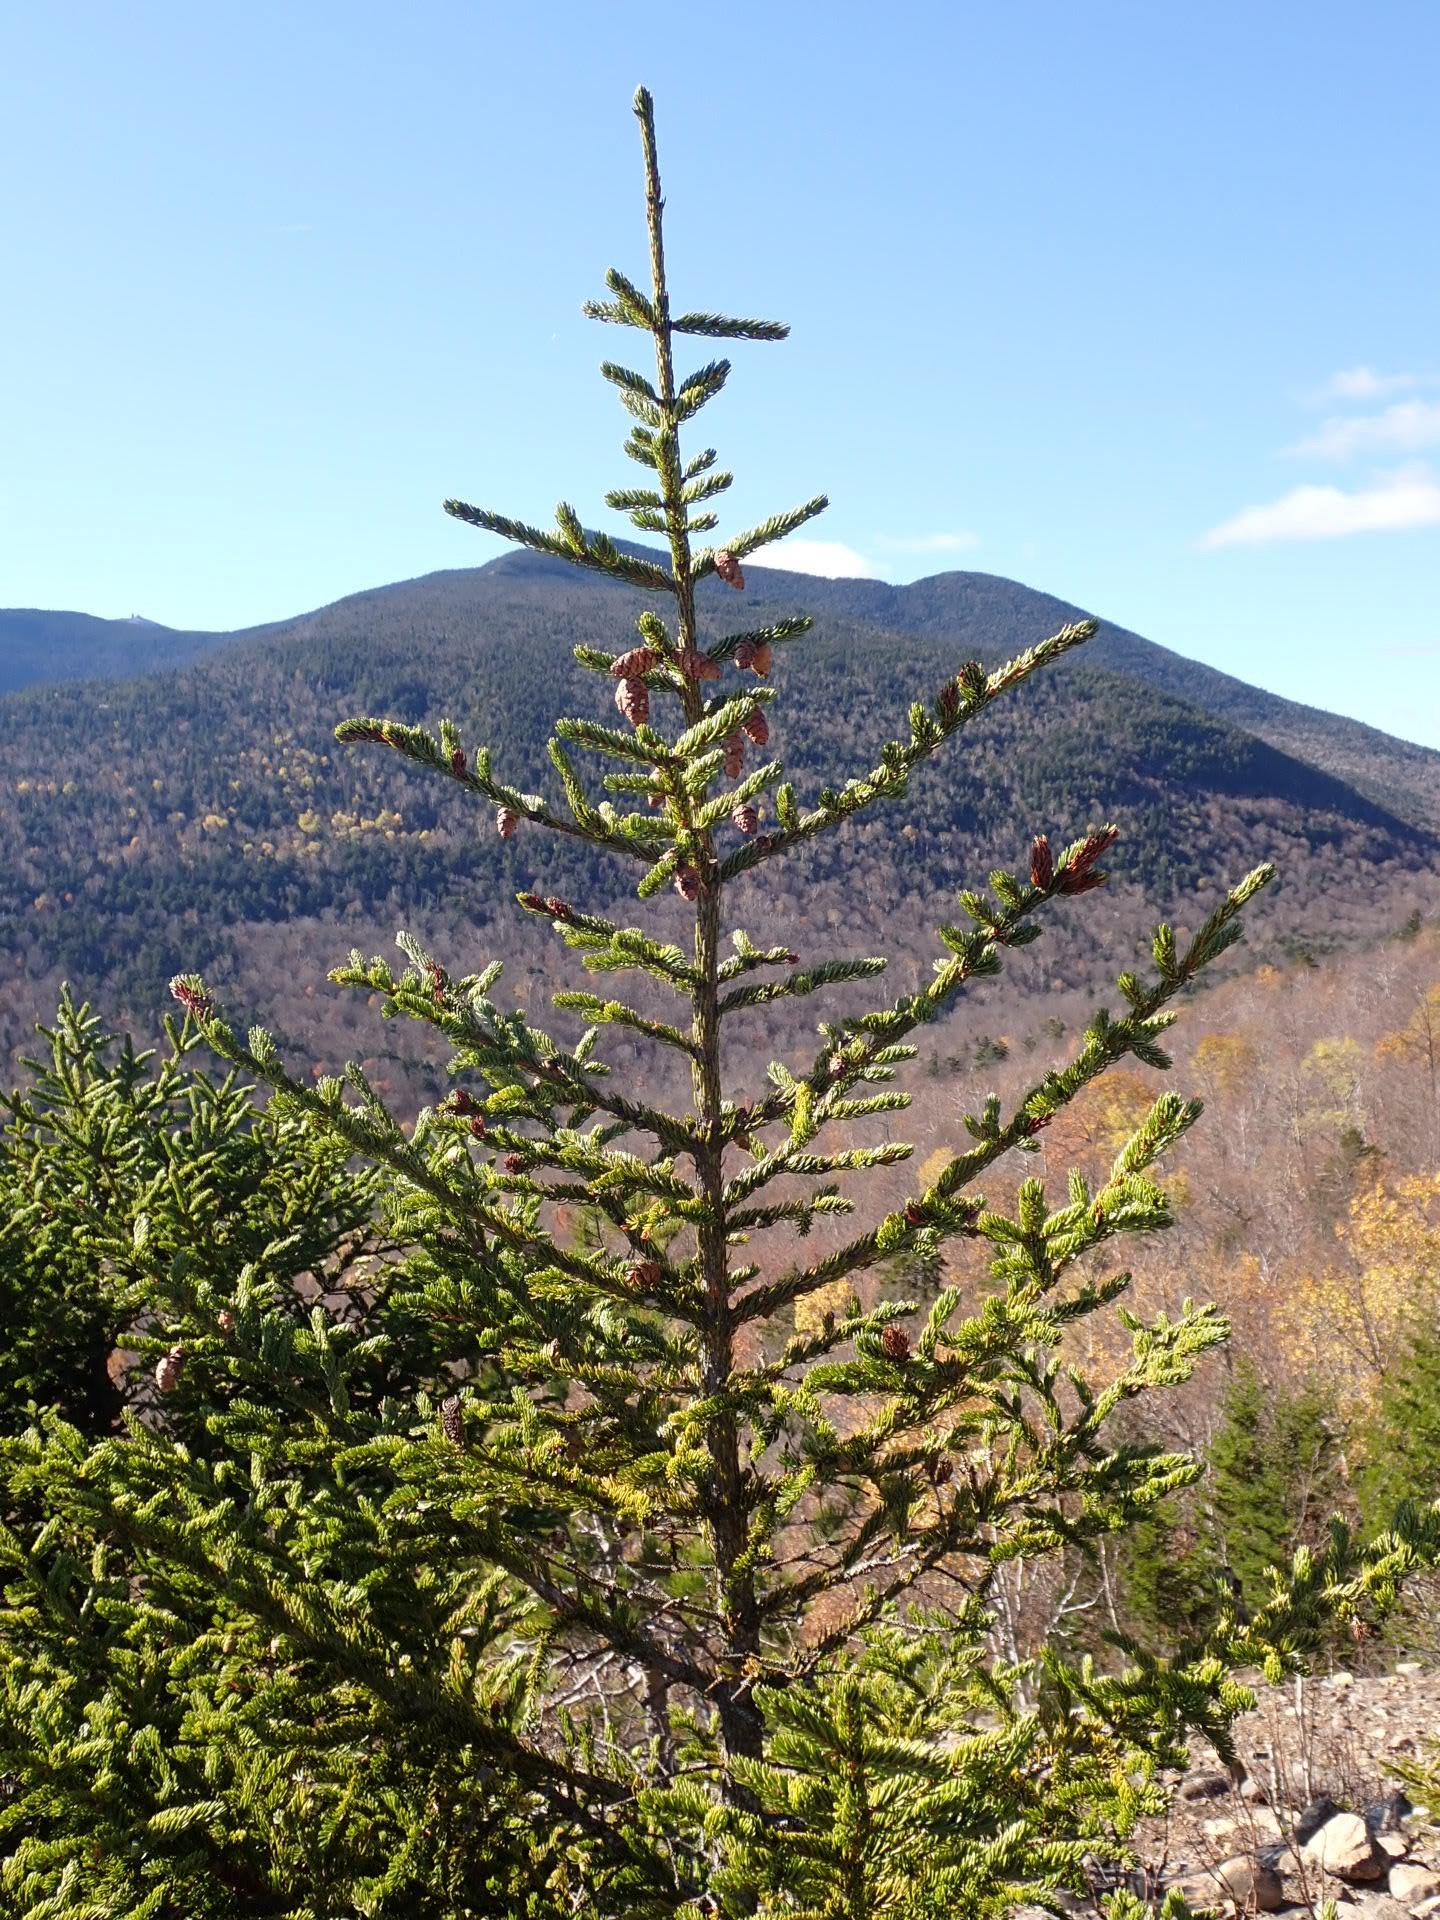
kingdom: Plantae
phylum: Tracheophyta
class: Pinopsida
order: Pinales
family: Pinaceae
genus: Picea
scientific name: Picea glauca
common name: White spruce
